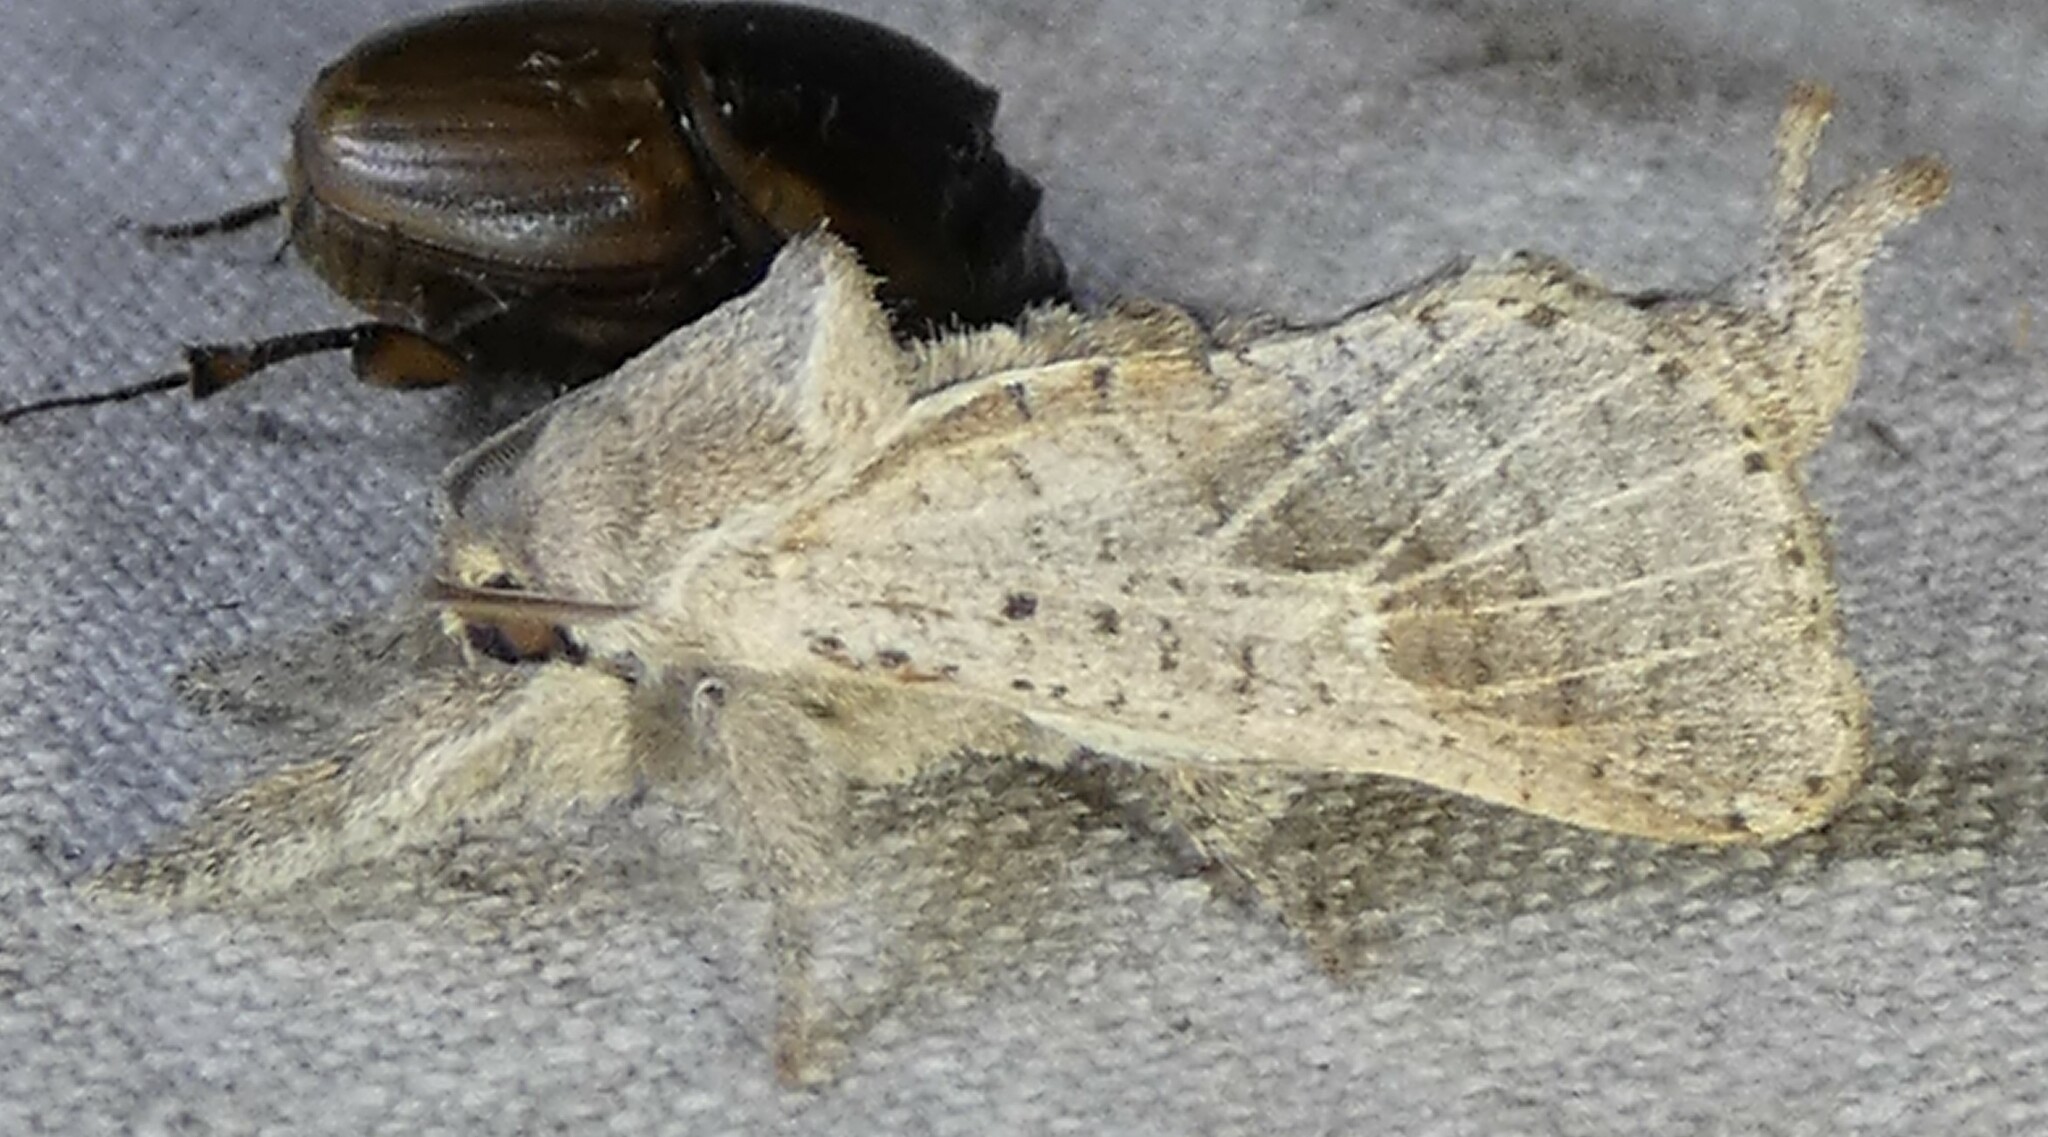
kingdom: Animalia
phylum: Arthropoda
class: Insecta
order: Lepidoptera
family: Cossidae
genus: Givira
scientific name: Givira anna
